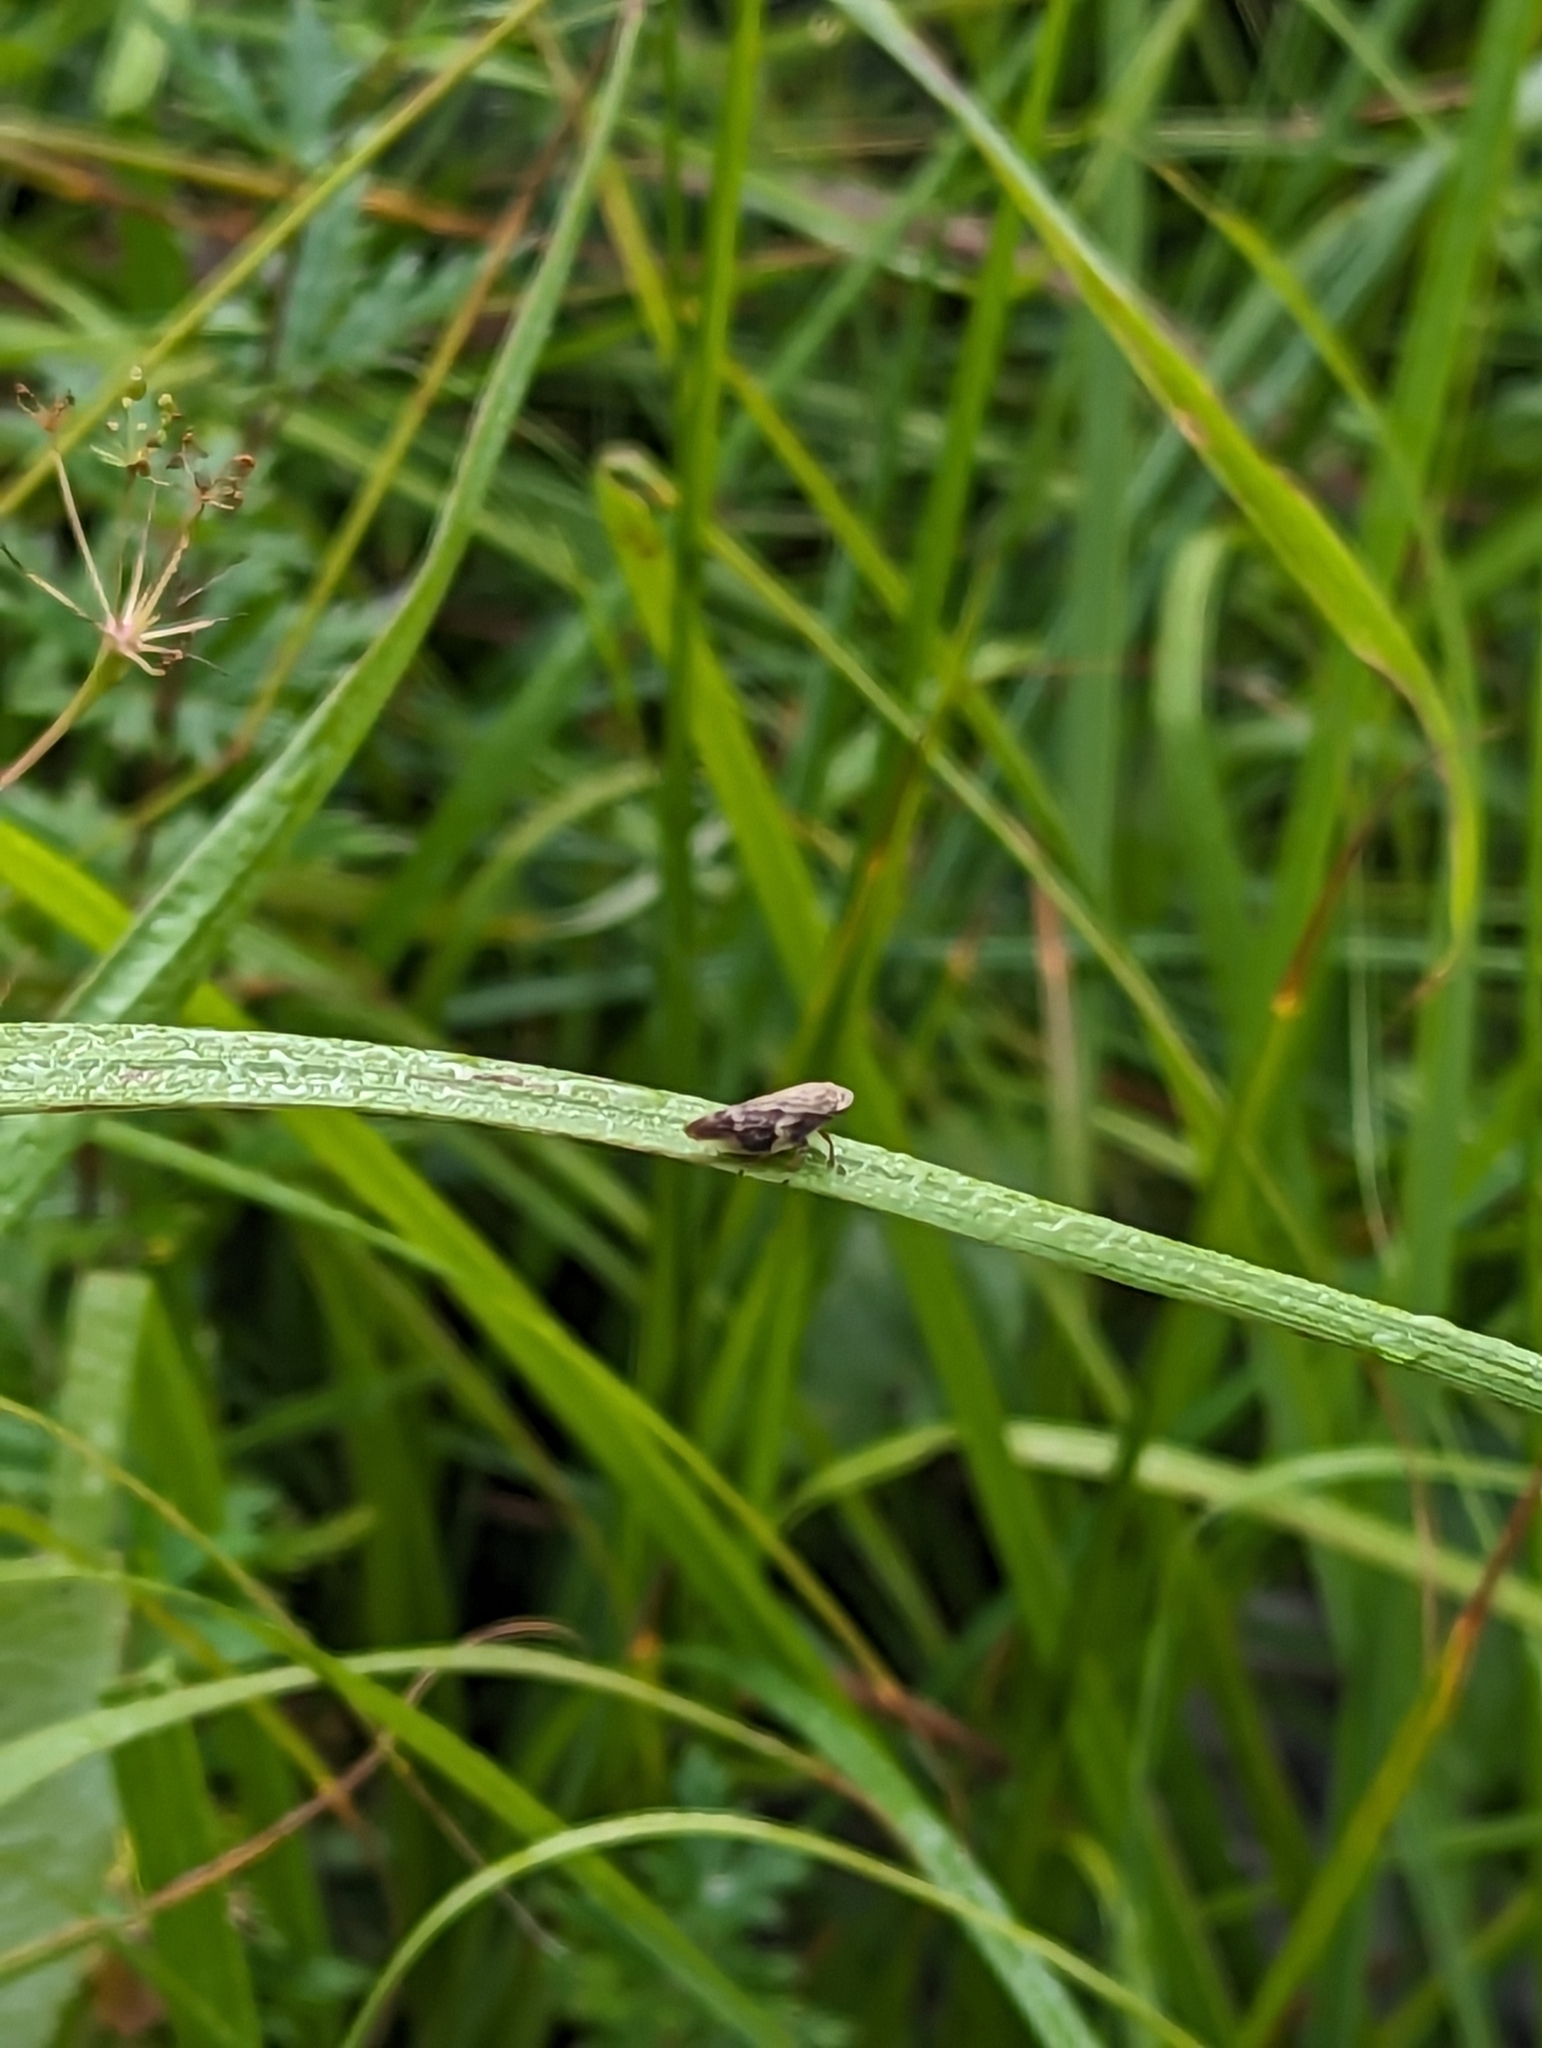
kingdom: Animalia
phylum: Arthropoda
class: Insecta
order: Hemiptera
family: Aphrophoridae
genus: Aphrophora
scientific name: Aphrophora alni
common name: European alder spittlebug
